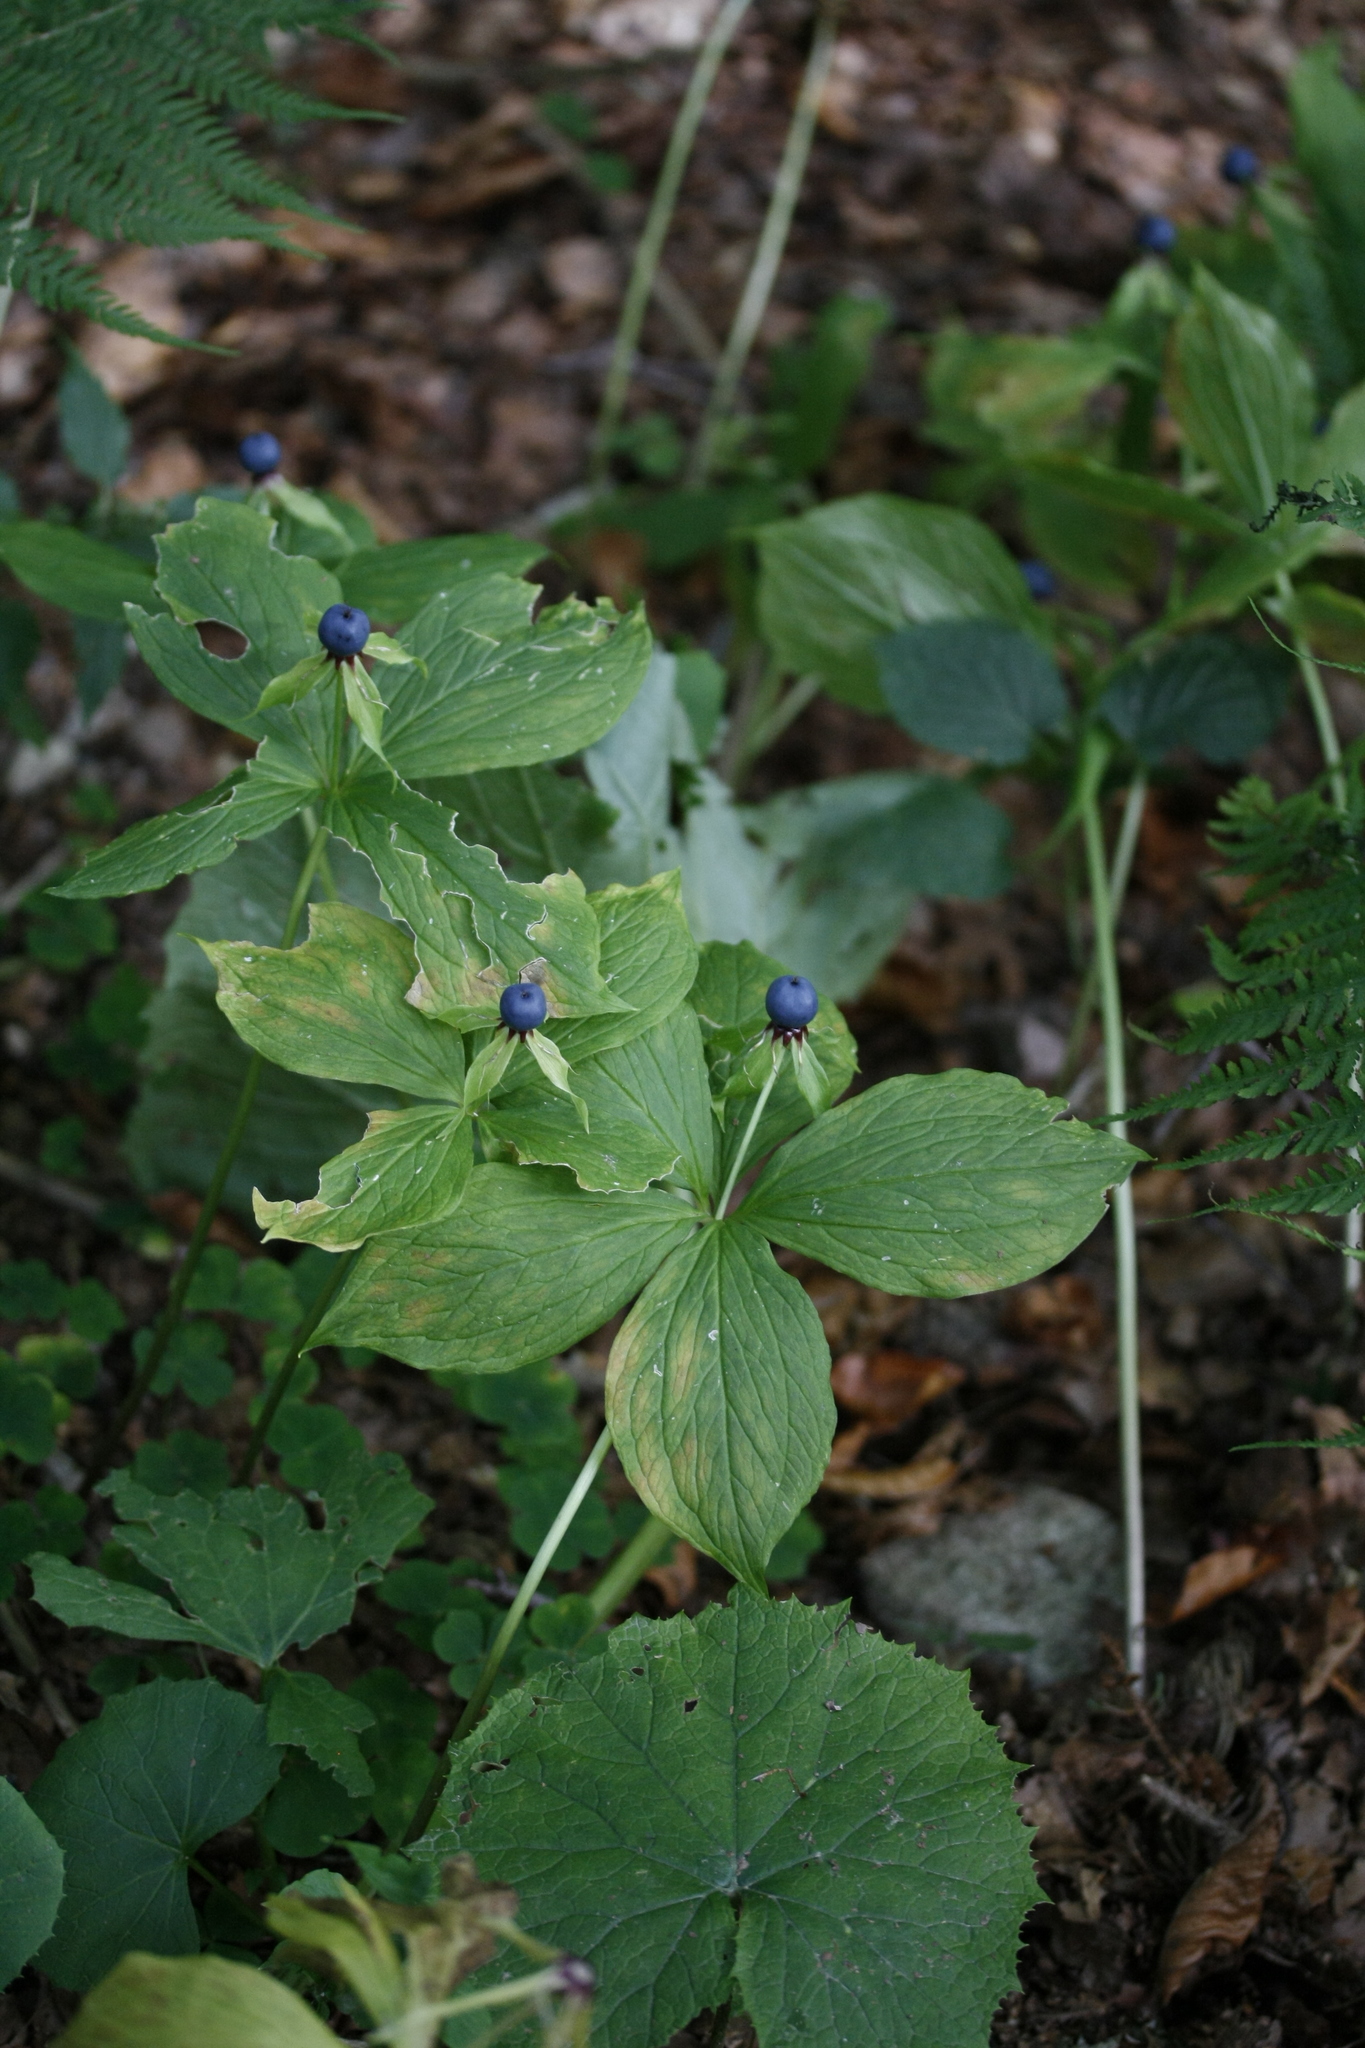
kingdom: Plantae
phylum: Tracheophyta
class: Liliopsida
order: Liliales
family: Melanthiaceae
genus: Paris
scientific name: Paris quadrifolia
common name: Herb-paris
